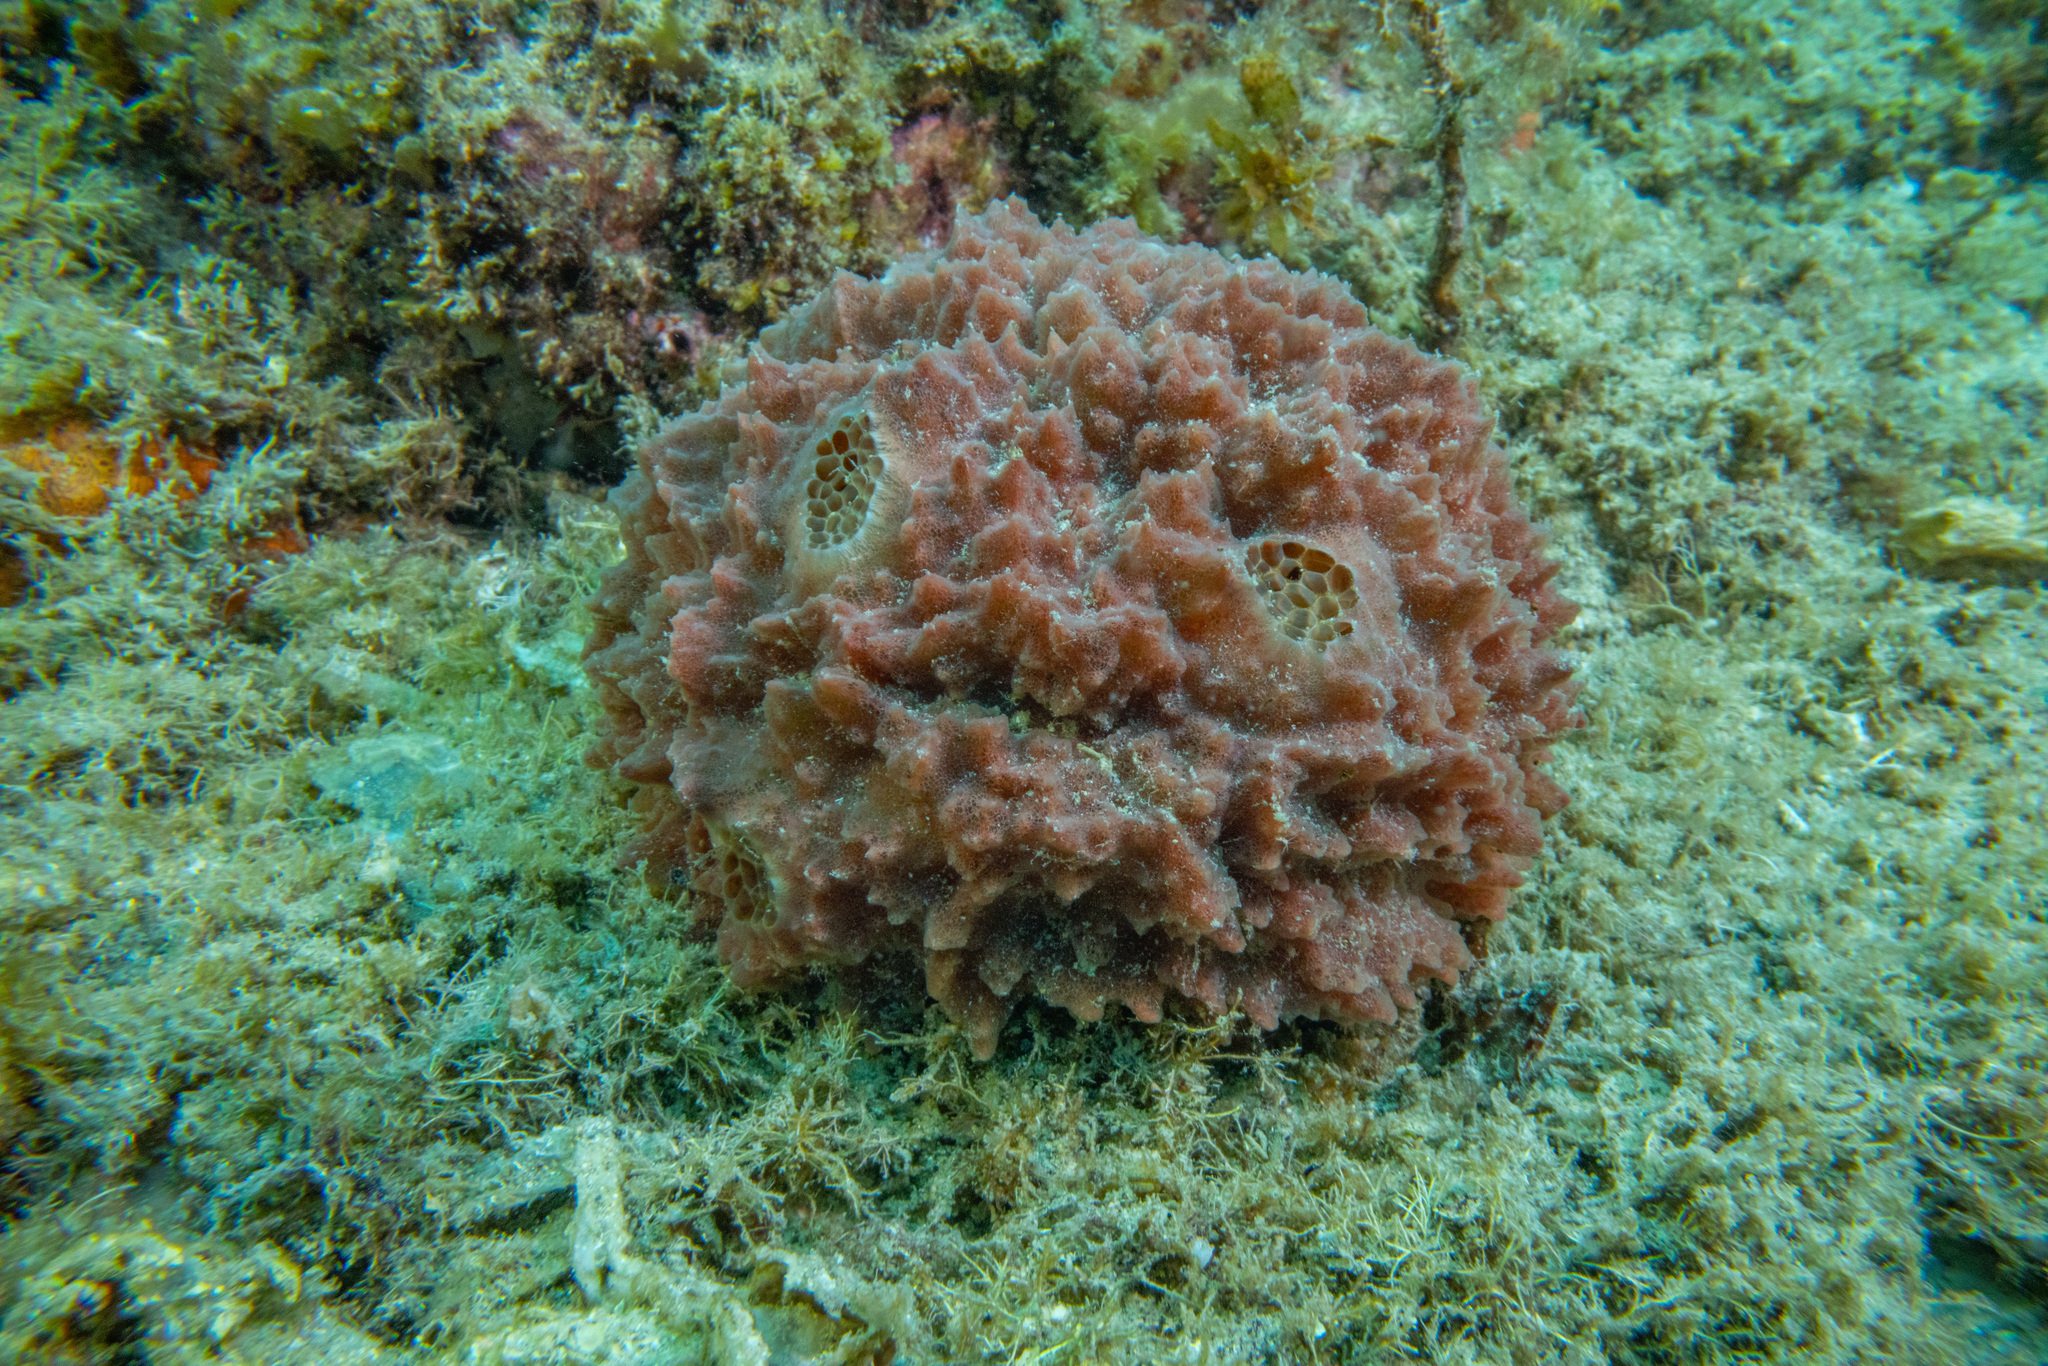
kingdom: Animalia
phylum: Porifera
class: Demospongiae
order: Suberitida
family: Suberitidae
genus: Aaptos
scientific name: Aaptos tenta
